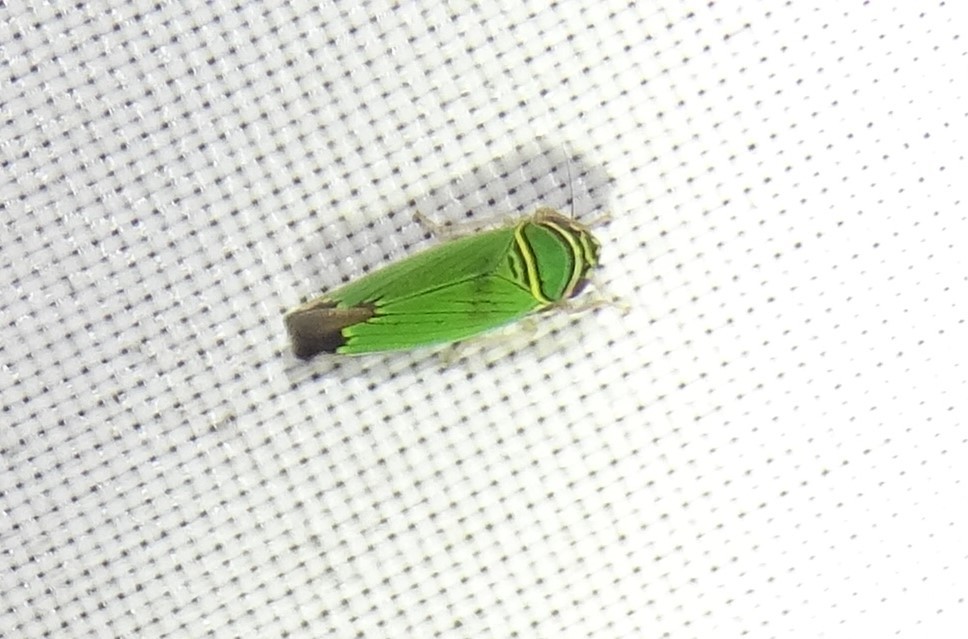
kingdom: Animalia
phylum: Arthropoda
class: Insecta
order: Hemiptera
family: Cicadellidae
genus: Tylozygus
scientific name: Tylozygus geometricus
